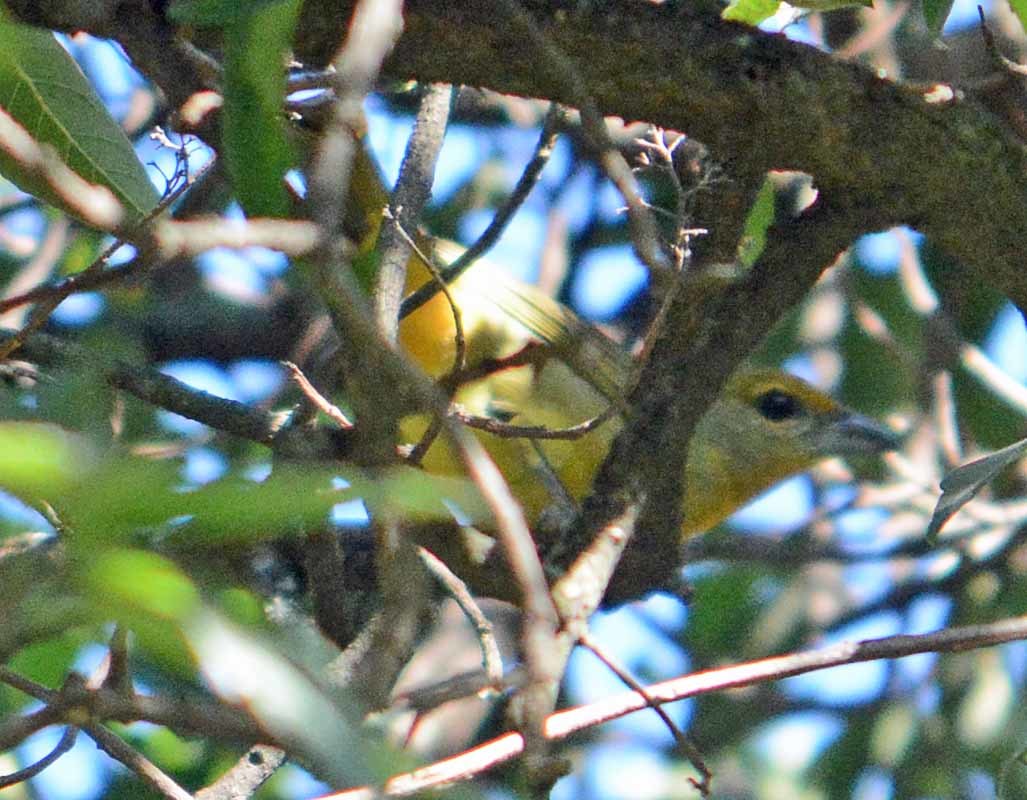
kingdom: Animalia
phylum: Chordata
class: Aves
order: Passeriformes
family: Cardinalidae
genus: Piranga
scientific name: Piranga flava
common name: Red tanager
